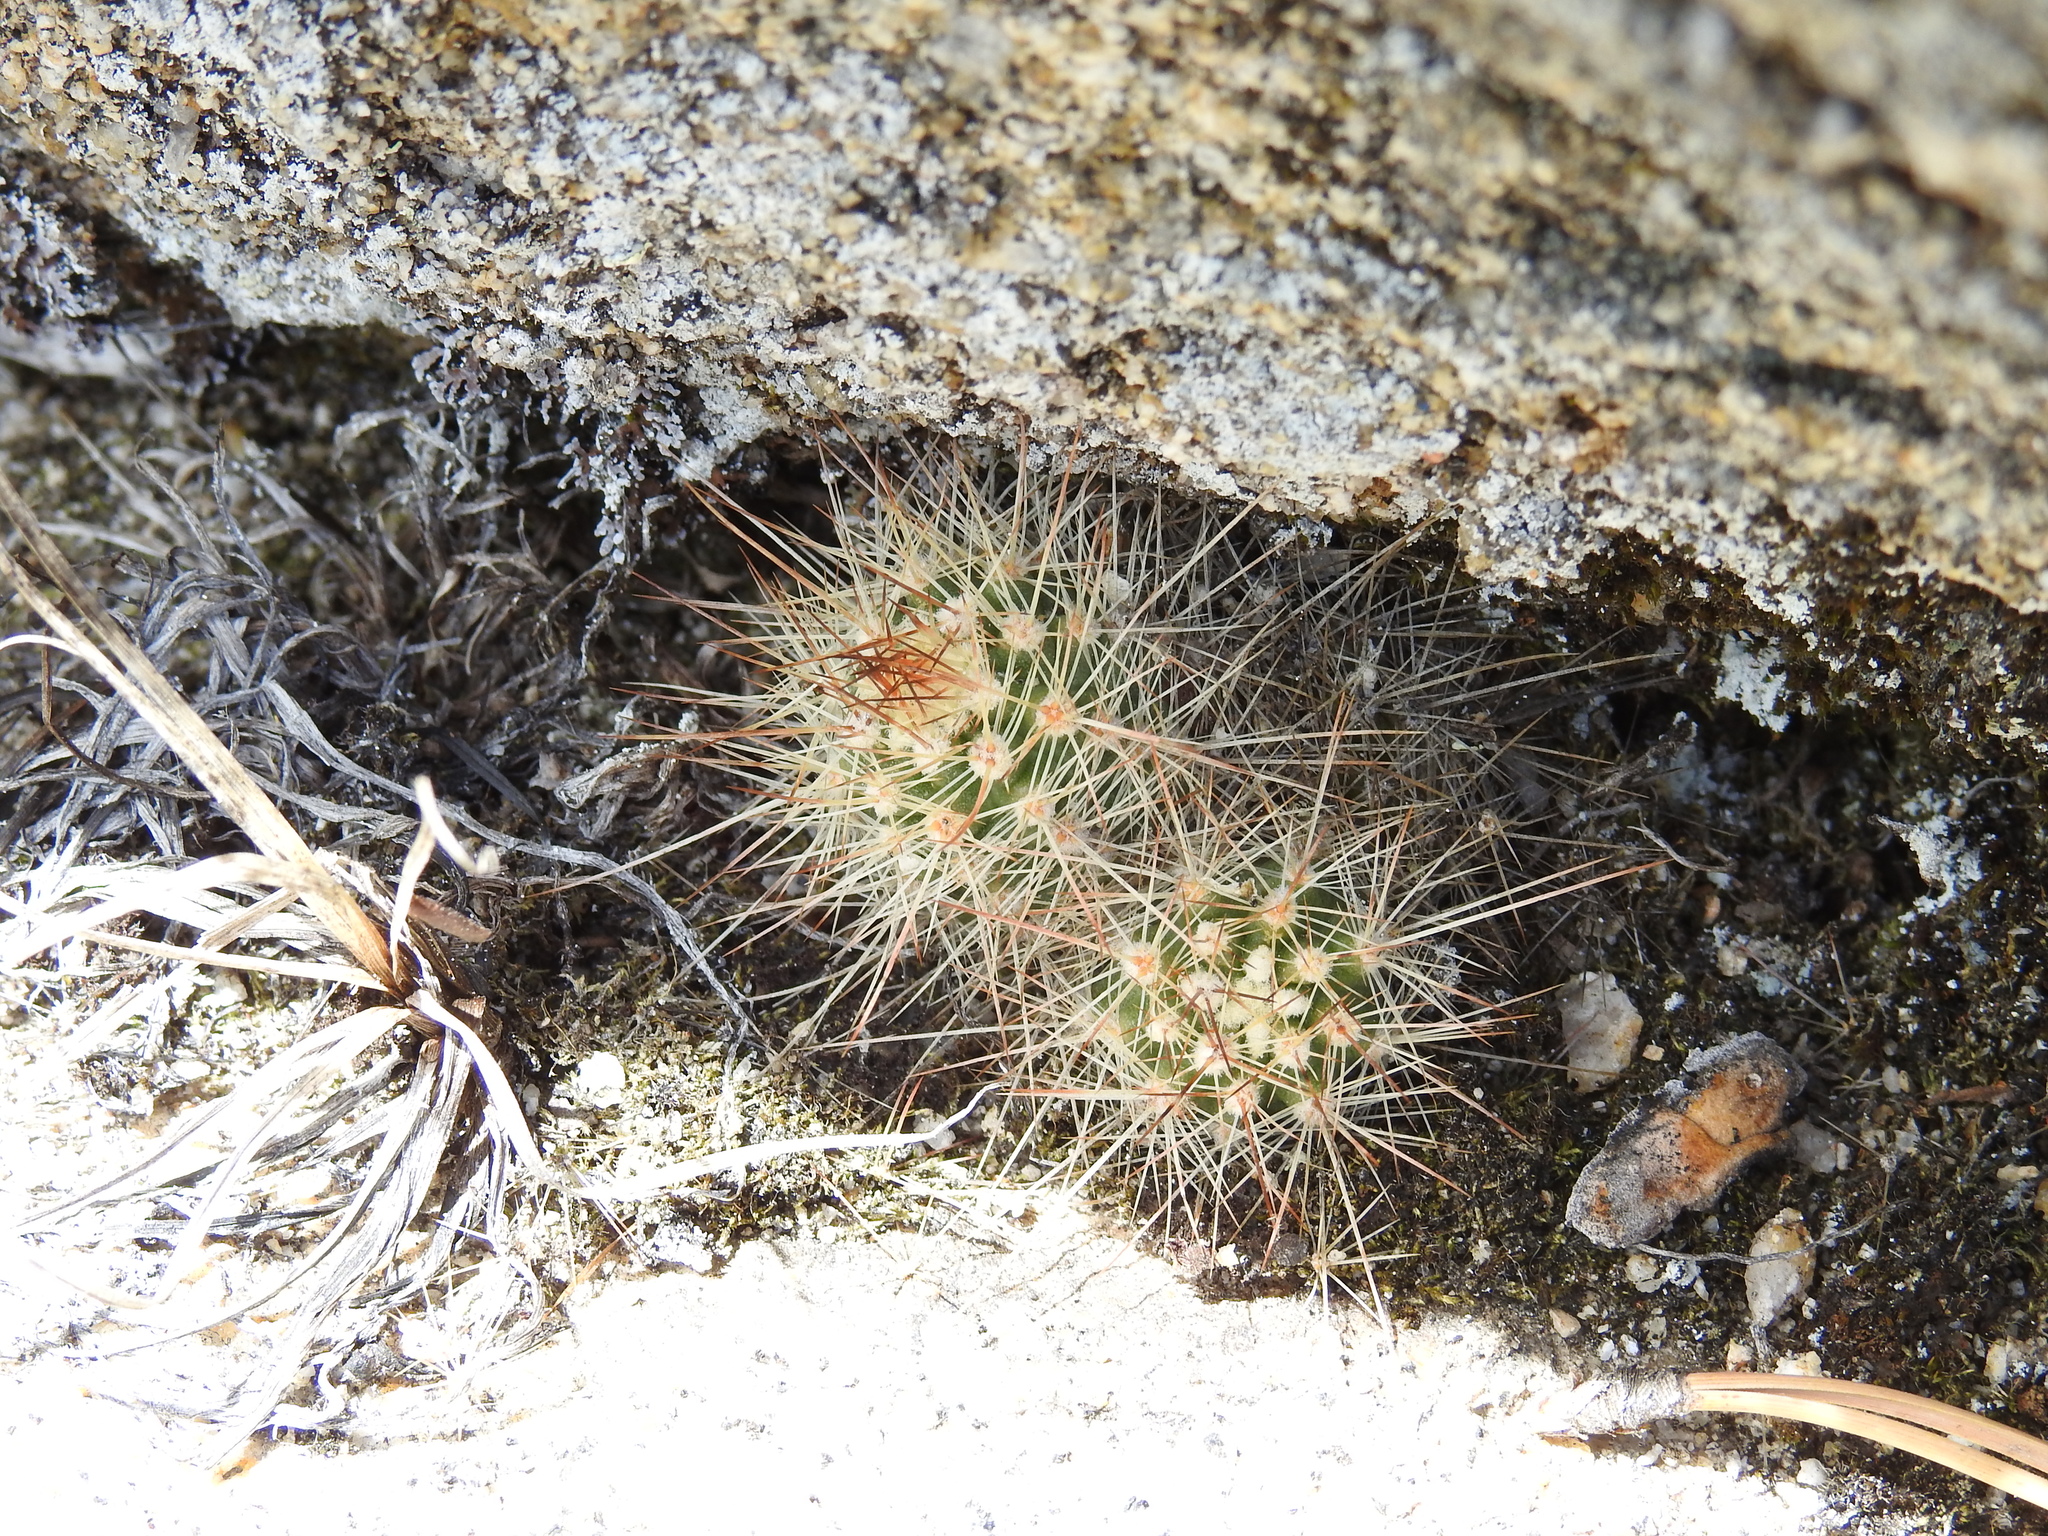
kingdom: Plantae
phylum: Tracheophyta
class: Magnoliopsida
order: Caryophyllales
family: Cactaceae
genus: Echinocereus
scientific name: Echinocereus pacificus
